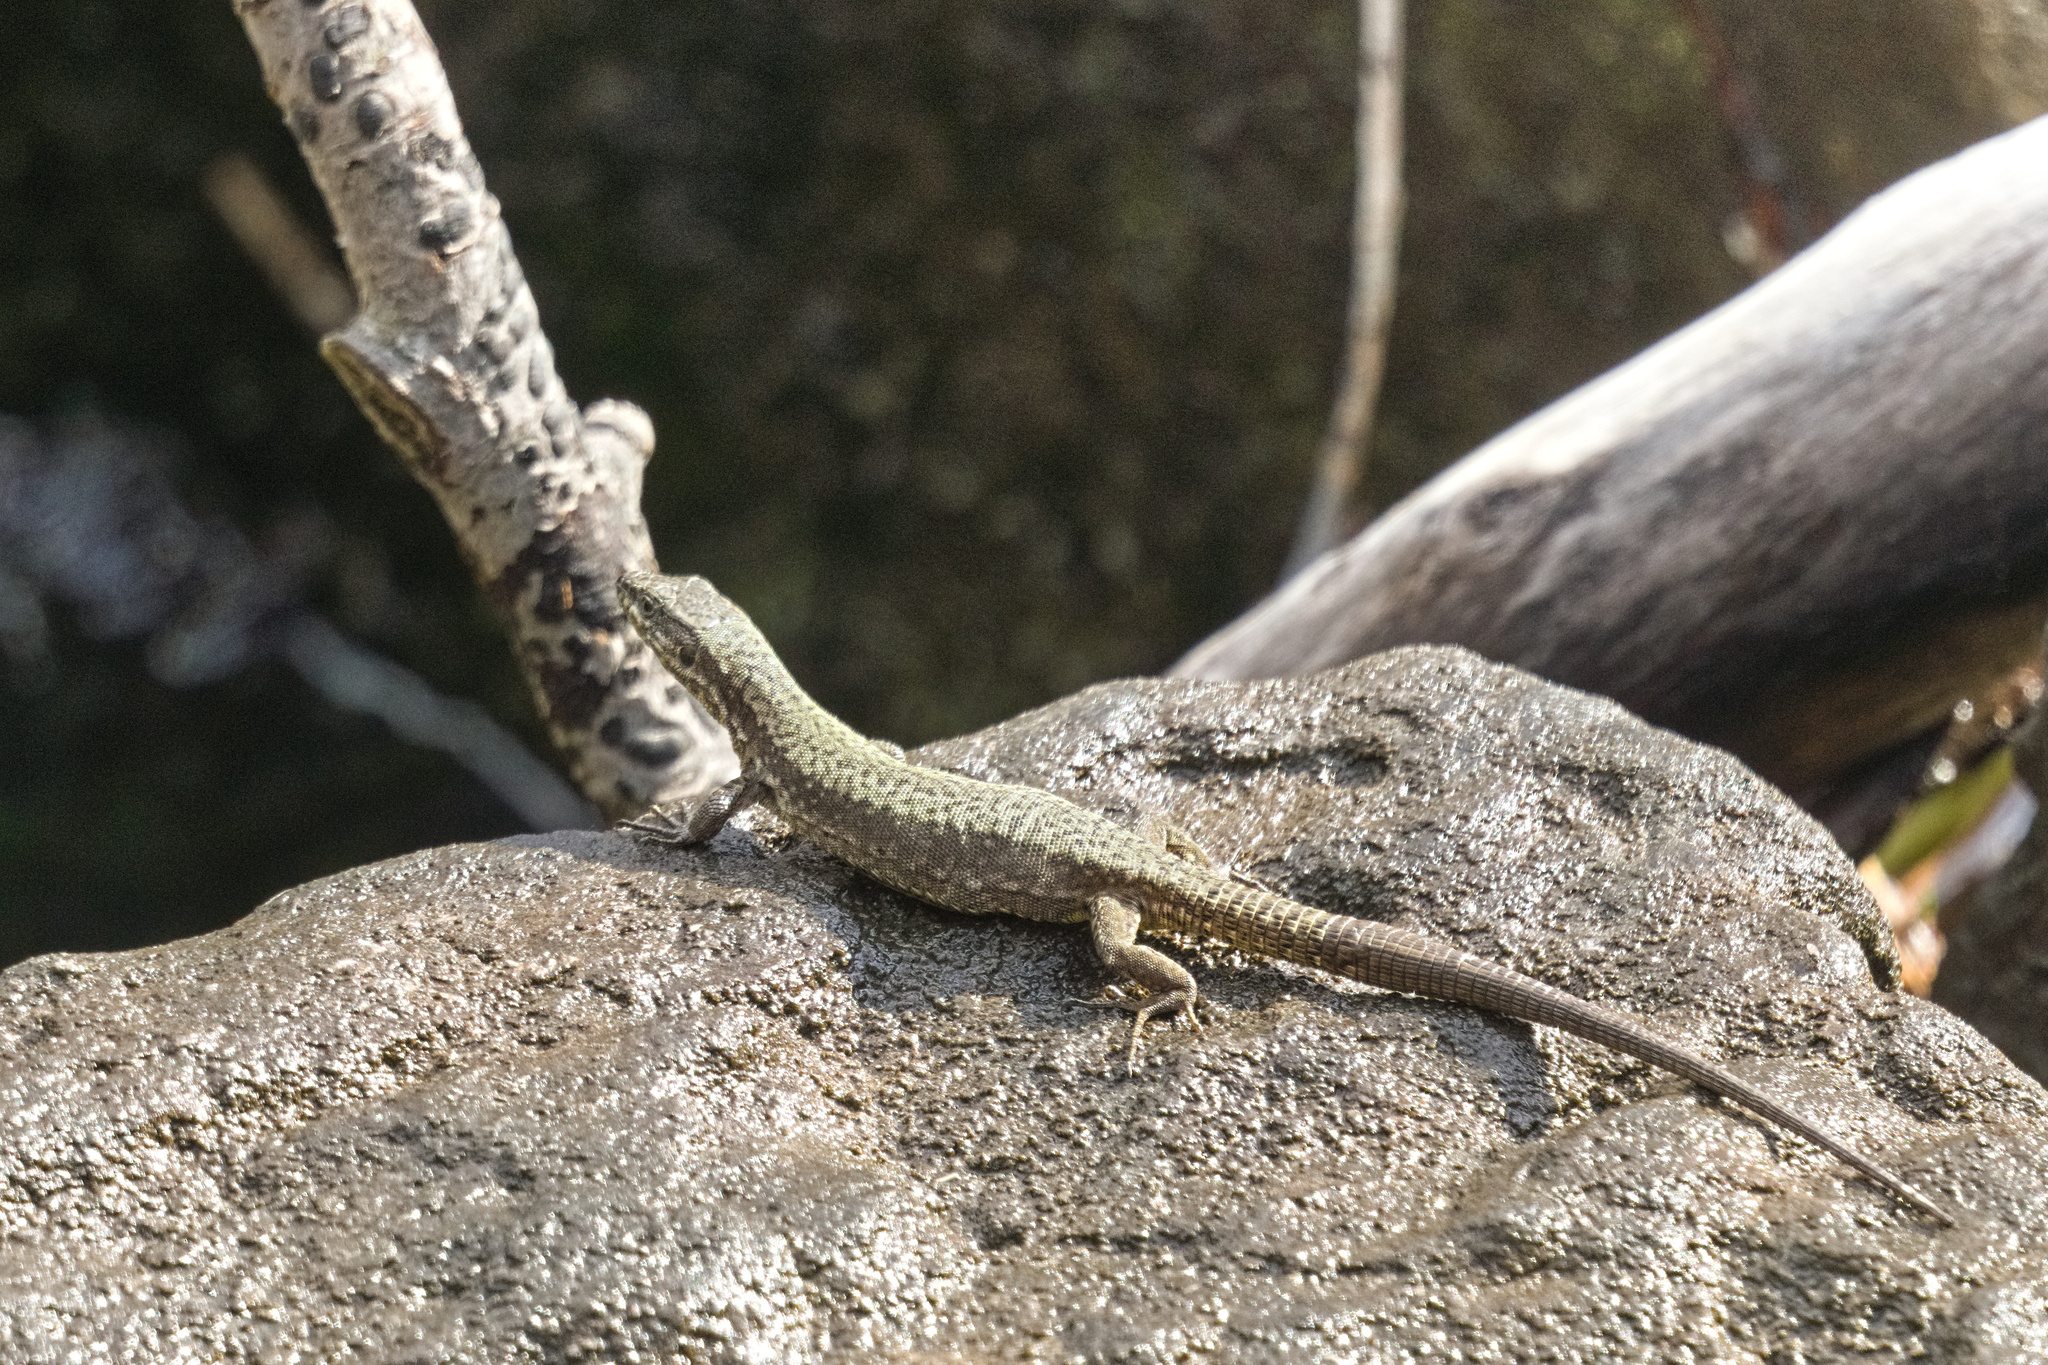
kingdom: Animalia
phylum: Chordata
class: Squamata
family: Lacertidae
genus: Podarcis
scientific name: Podarcis muralis
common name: Common wall lizard
